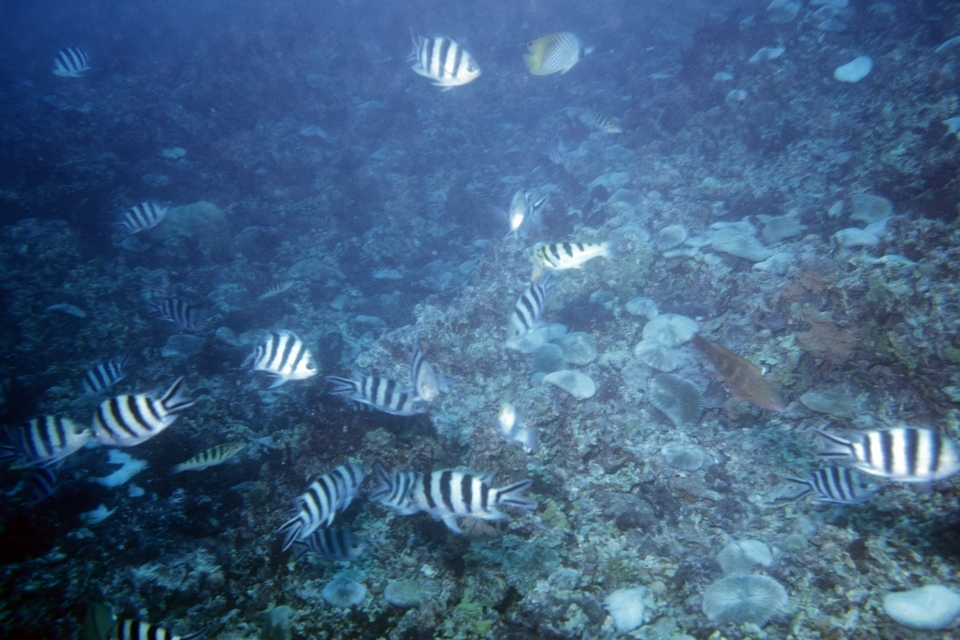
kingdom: Animalia
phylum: Chordata
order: Perciformes
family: Pomacentridae
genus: Abudefduf
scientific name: Abudefduf sexfasciatus
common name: Scissortail sergeant
